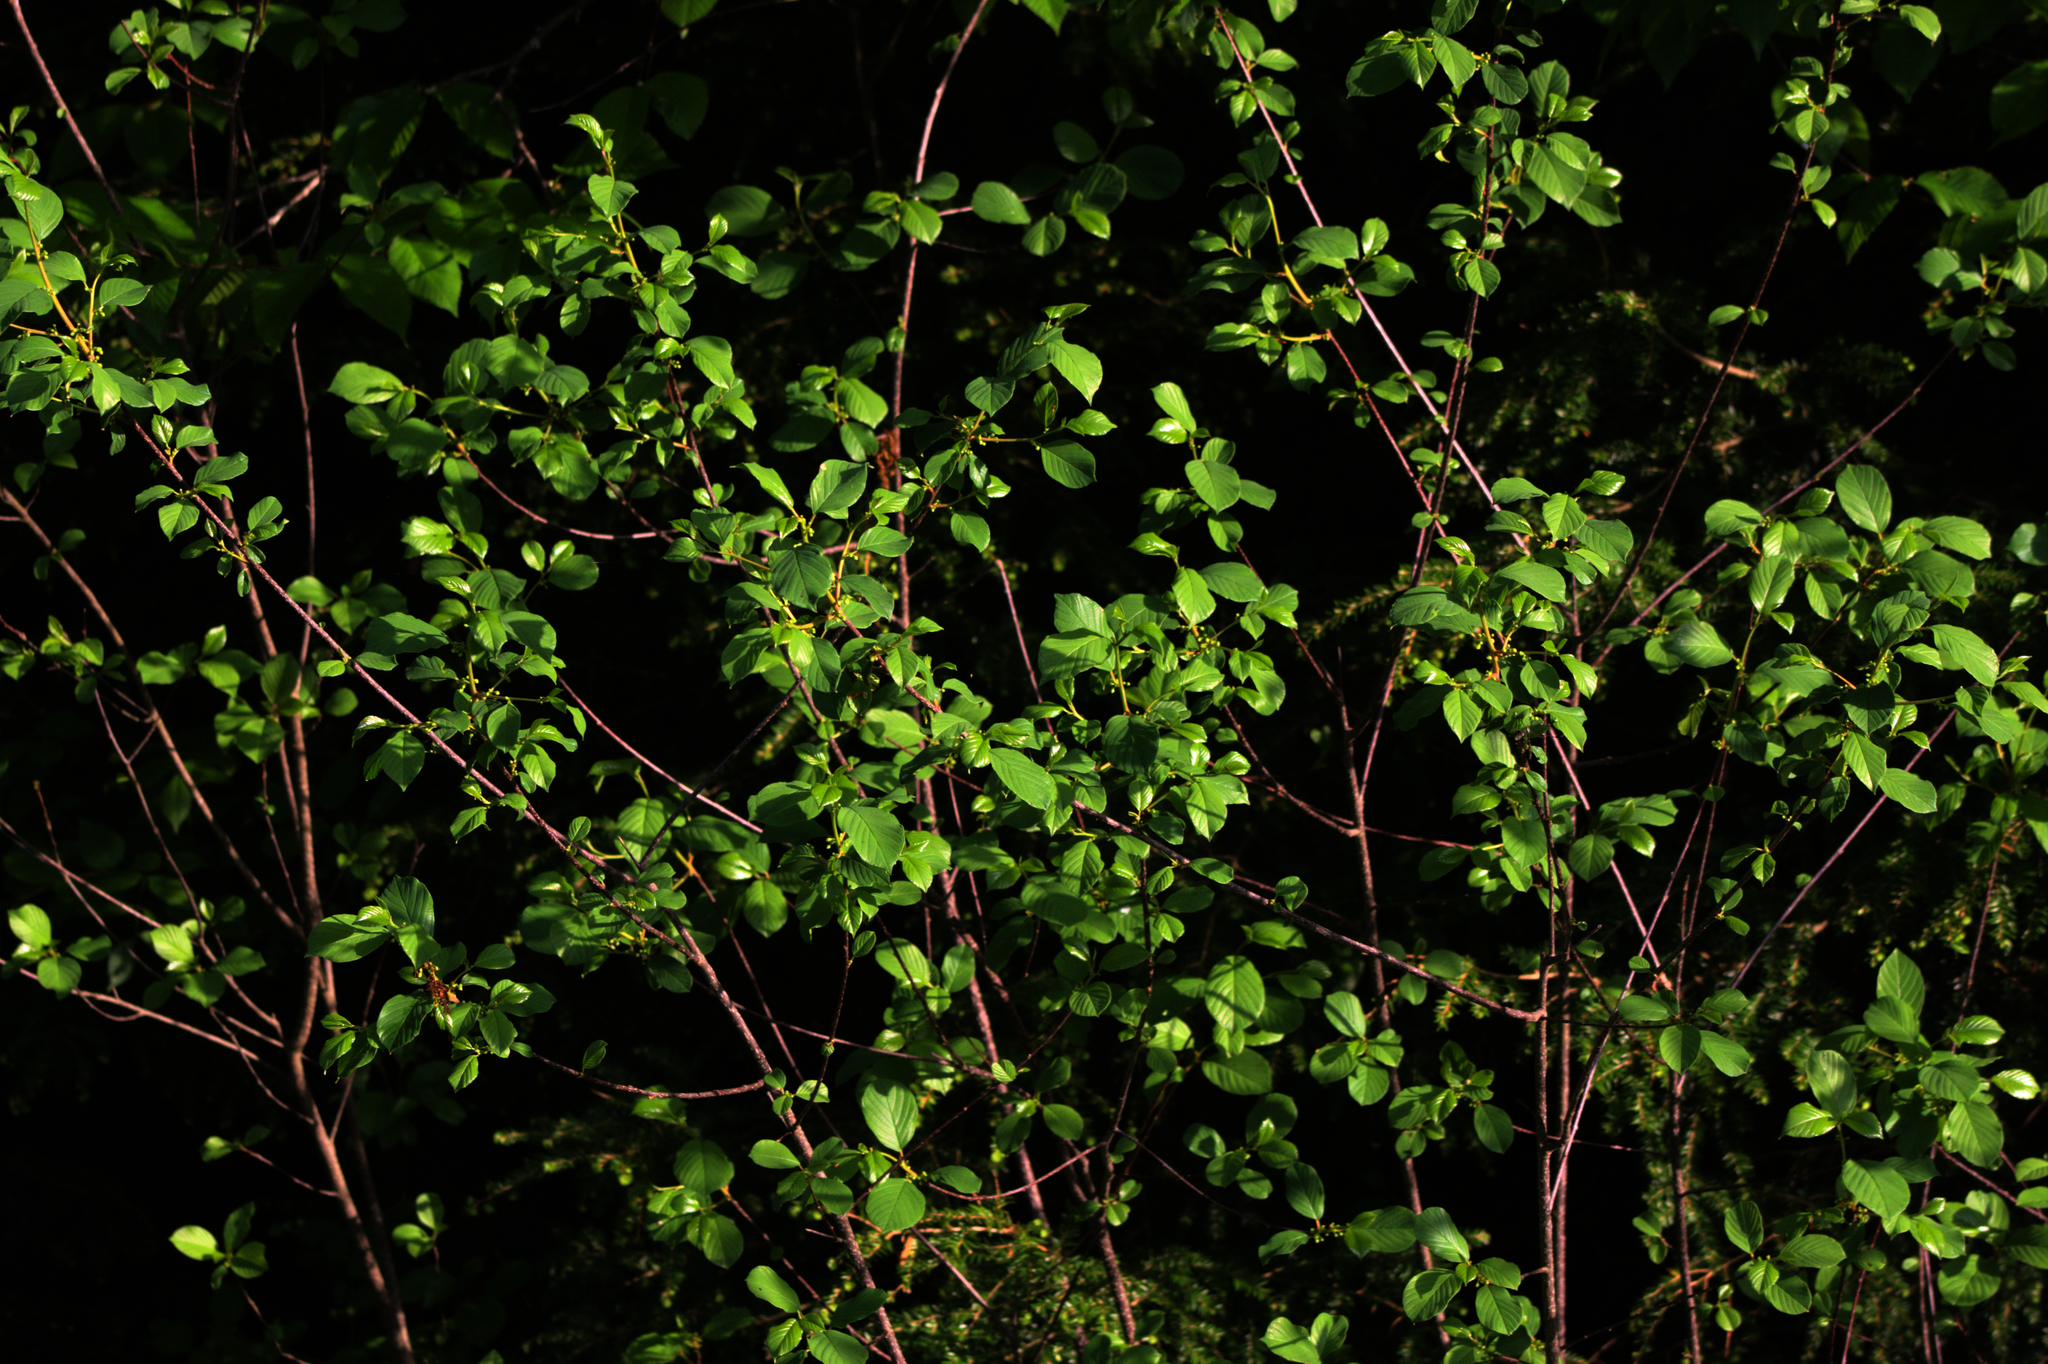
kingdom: Plantae
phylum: Tracheophyta
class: Magnoliopsida
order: Rosales
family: Rhamnaceae
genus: Frangula
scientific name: Frangula alnus
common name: Alder buckthorn
